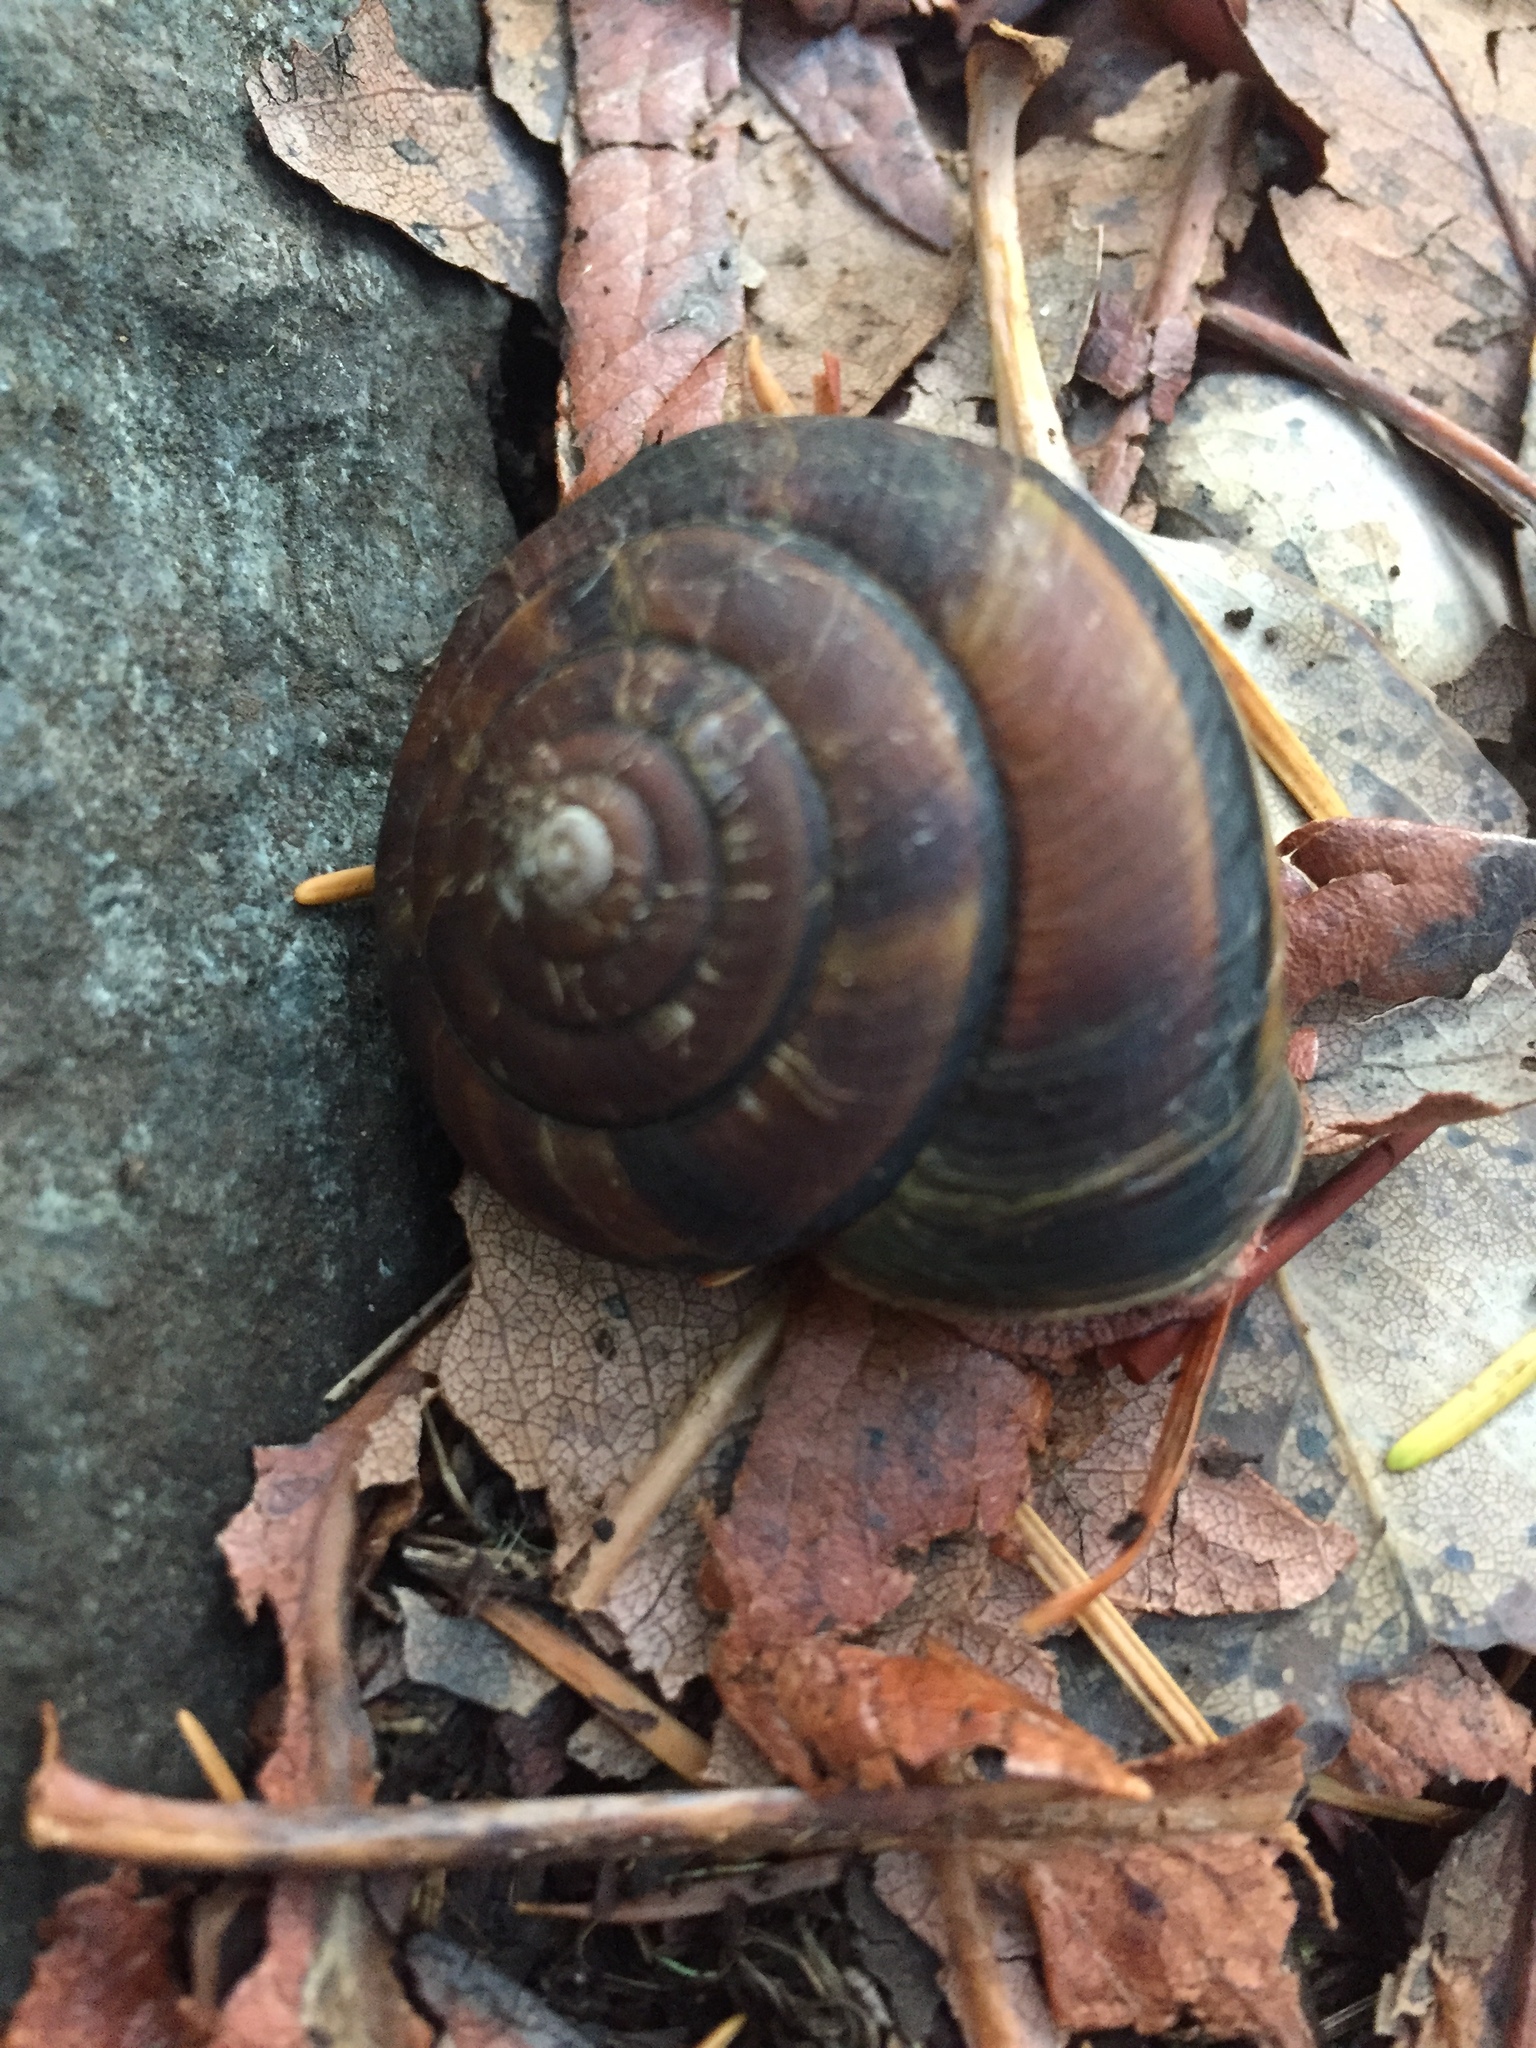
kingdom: Animalia
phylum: Mollusca
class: Gastropoda
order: Stylommatophora
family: Xanthonychidae
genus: Monadenia
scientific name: Monadenia fidelis
